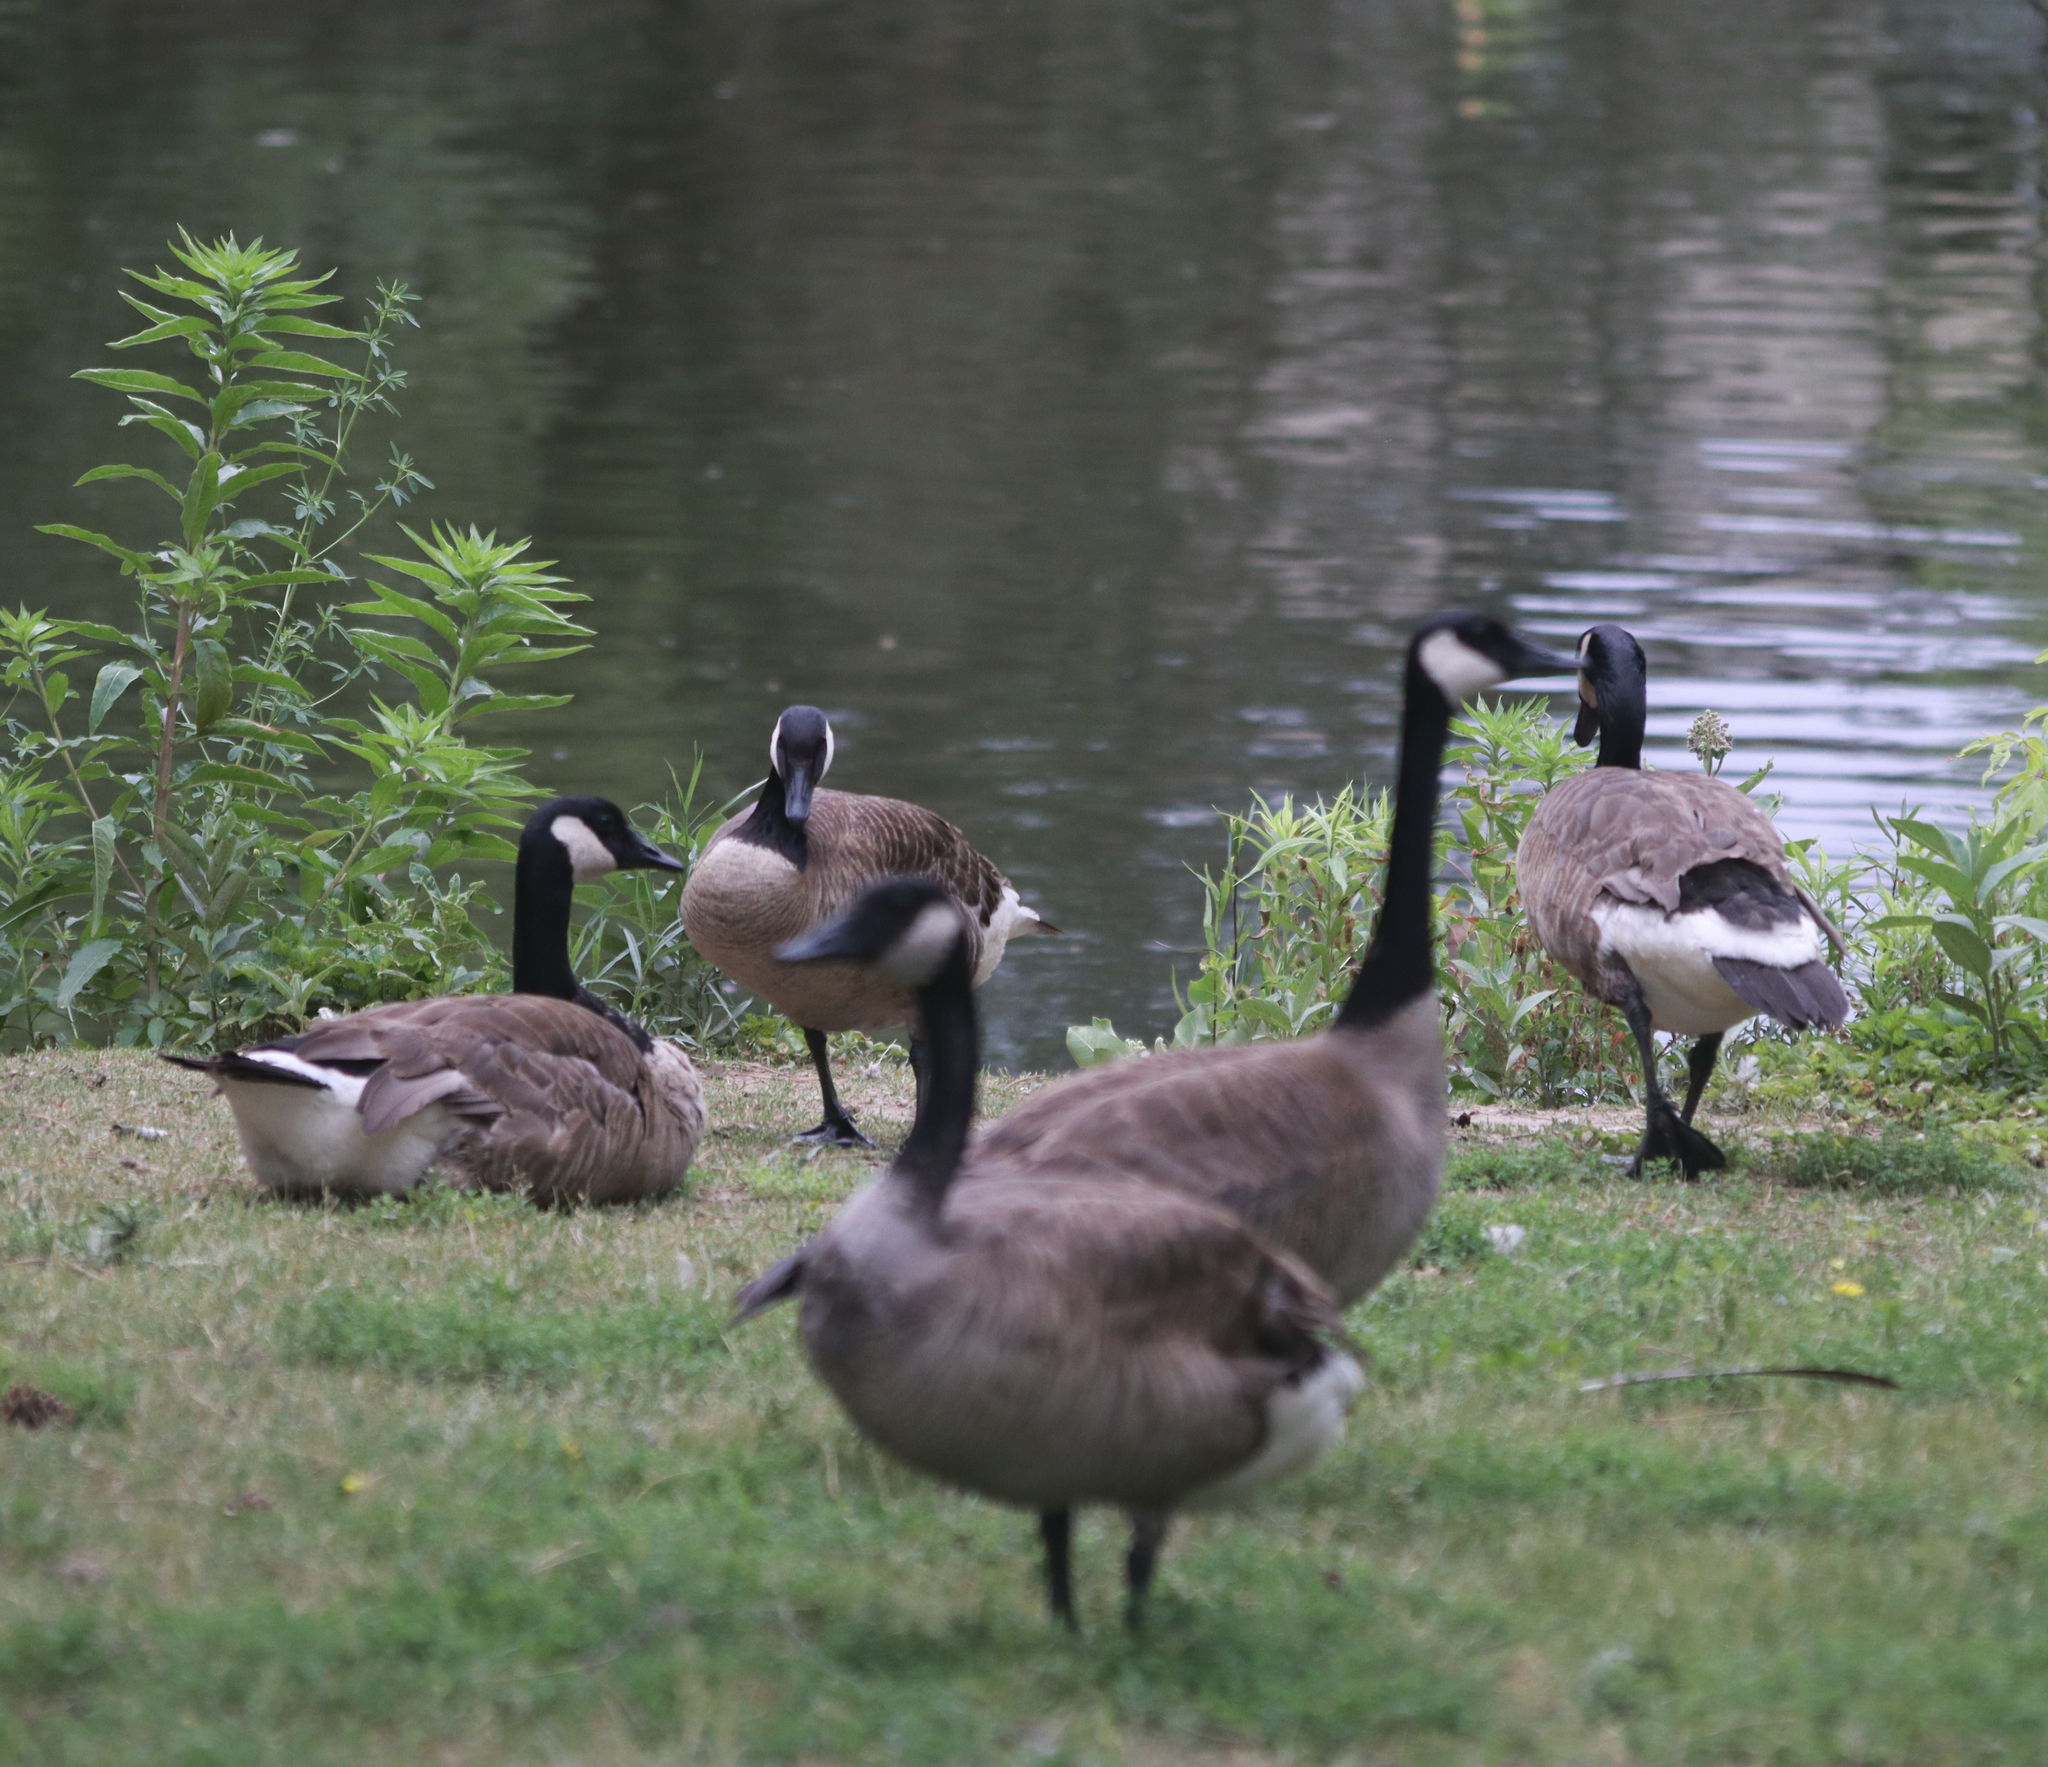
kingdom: Animalia
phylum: Chordata
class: Aves
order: Anseriformes
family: Anatidae
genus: Branta
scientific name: Branta canadensis
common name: Canada goose
